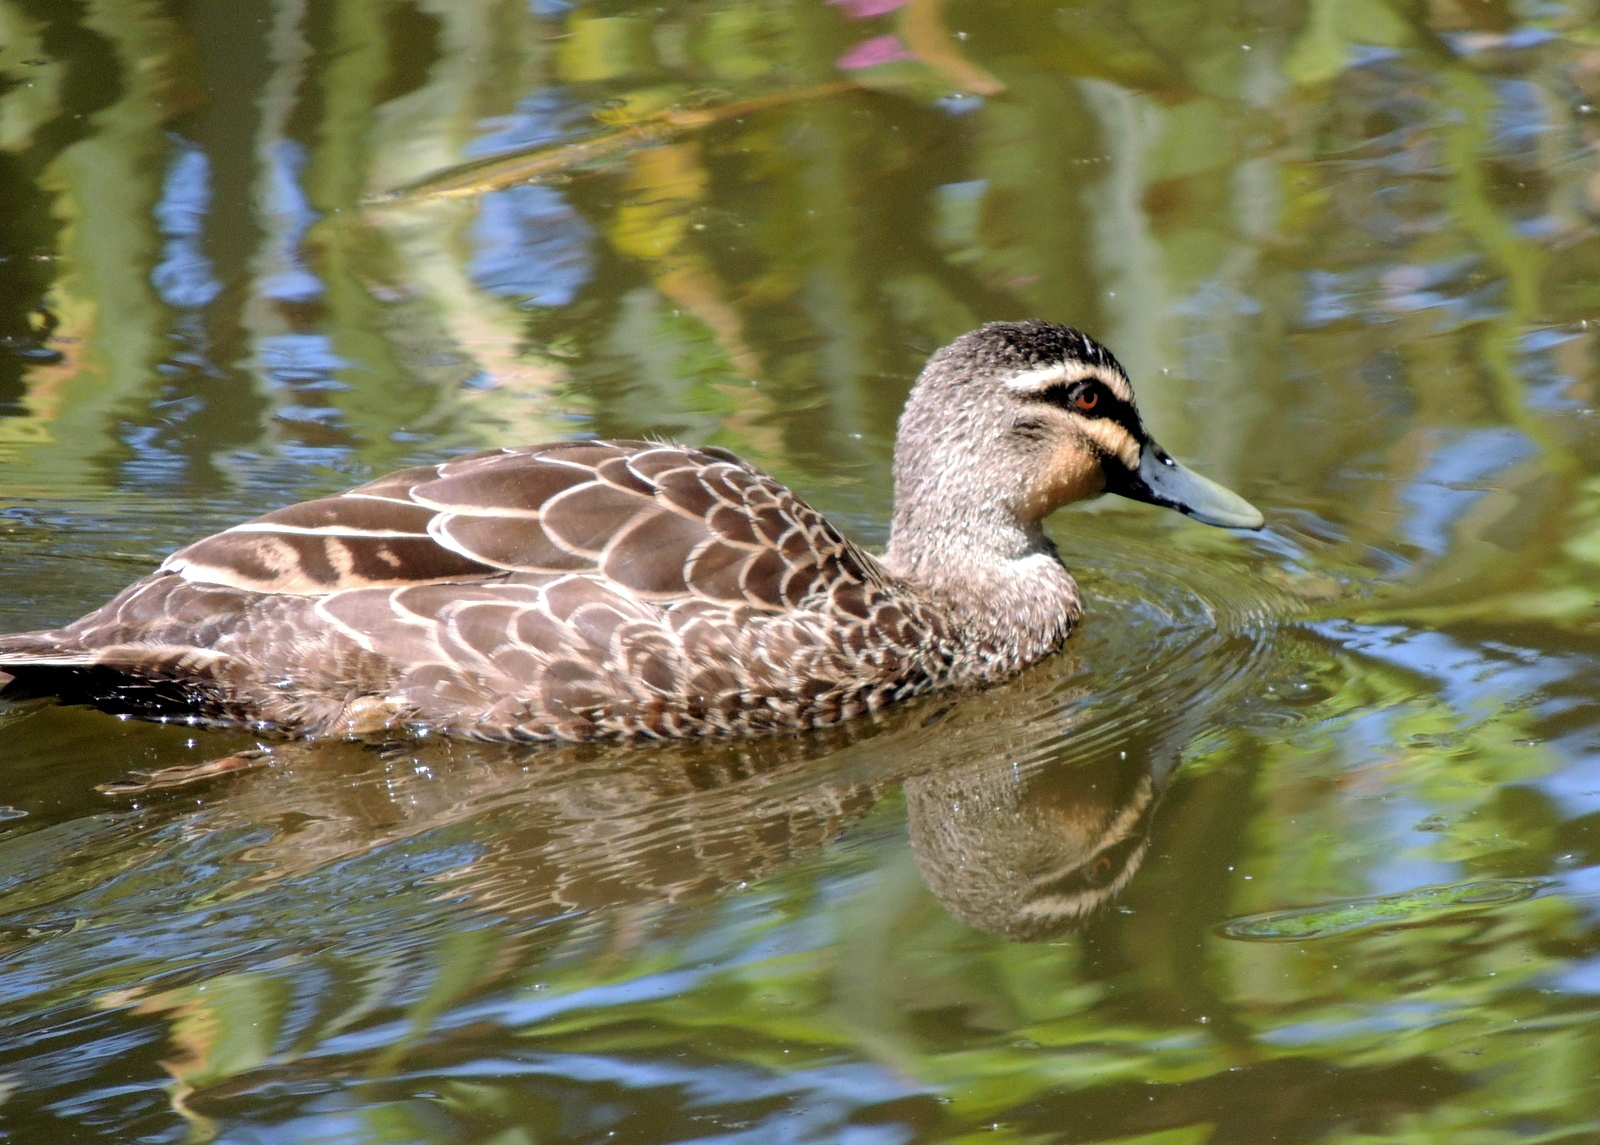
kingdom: Animalia
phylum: Chordata
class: Aves
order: Anseriformes
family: Anatidae
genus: Anas
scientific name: Anas superciliosa
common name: Pacific black duck
